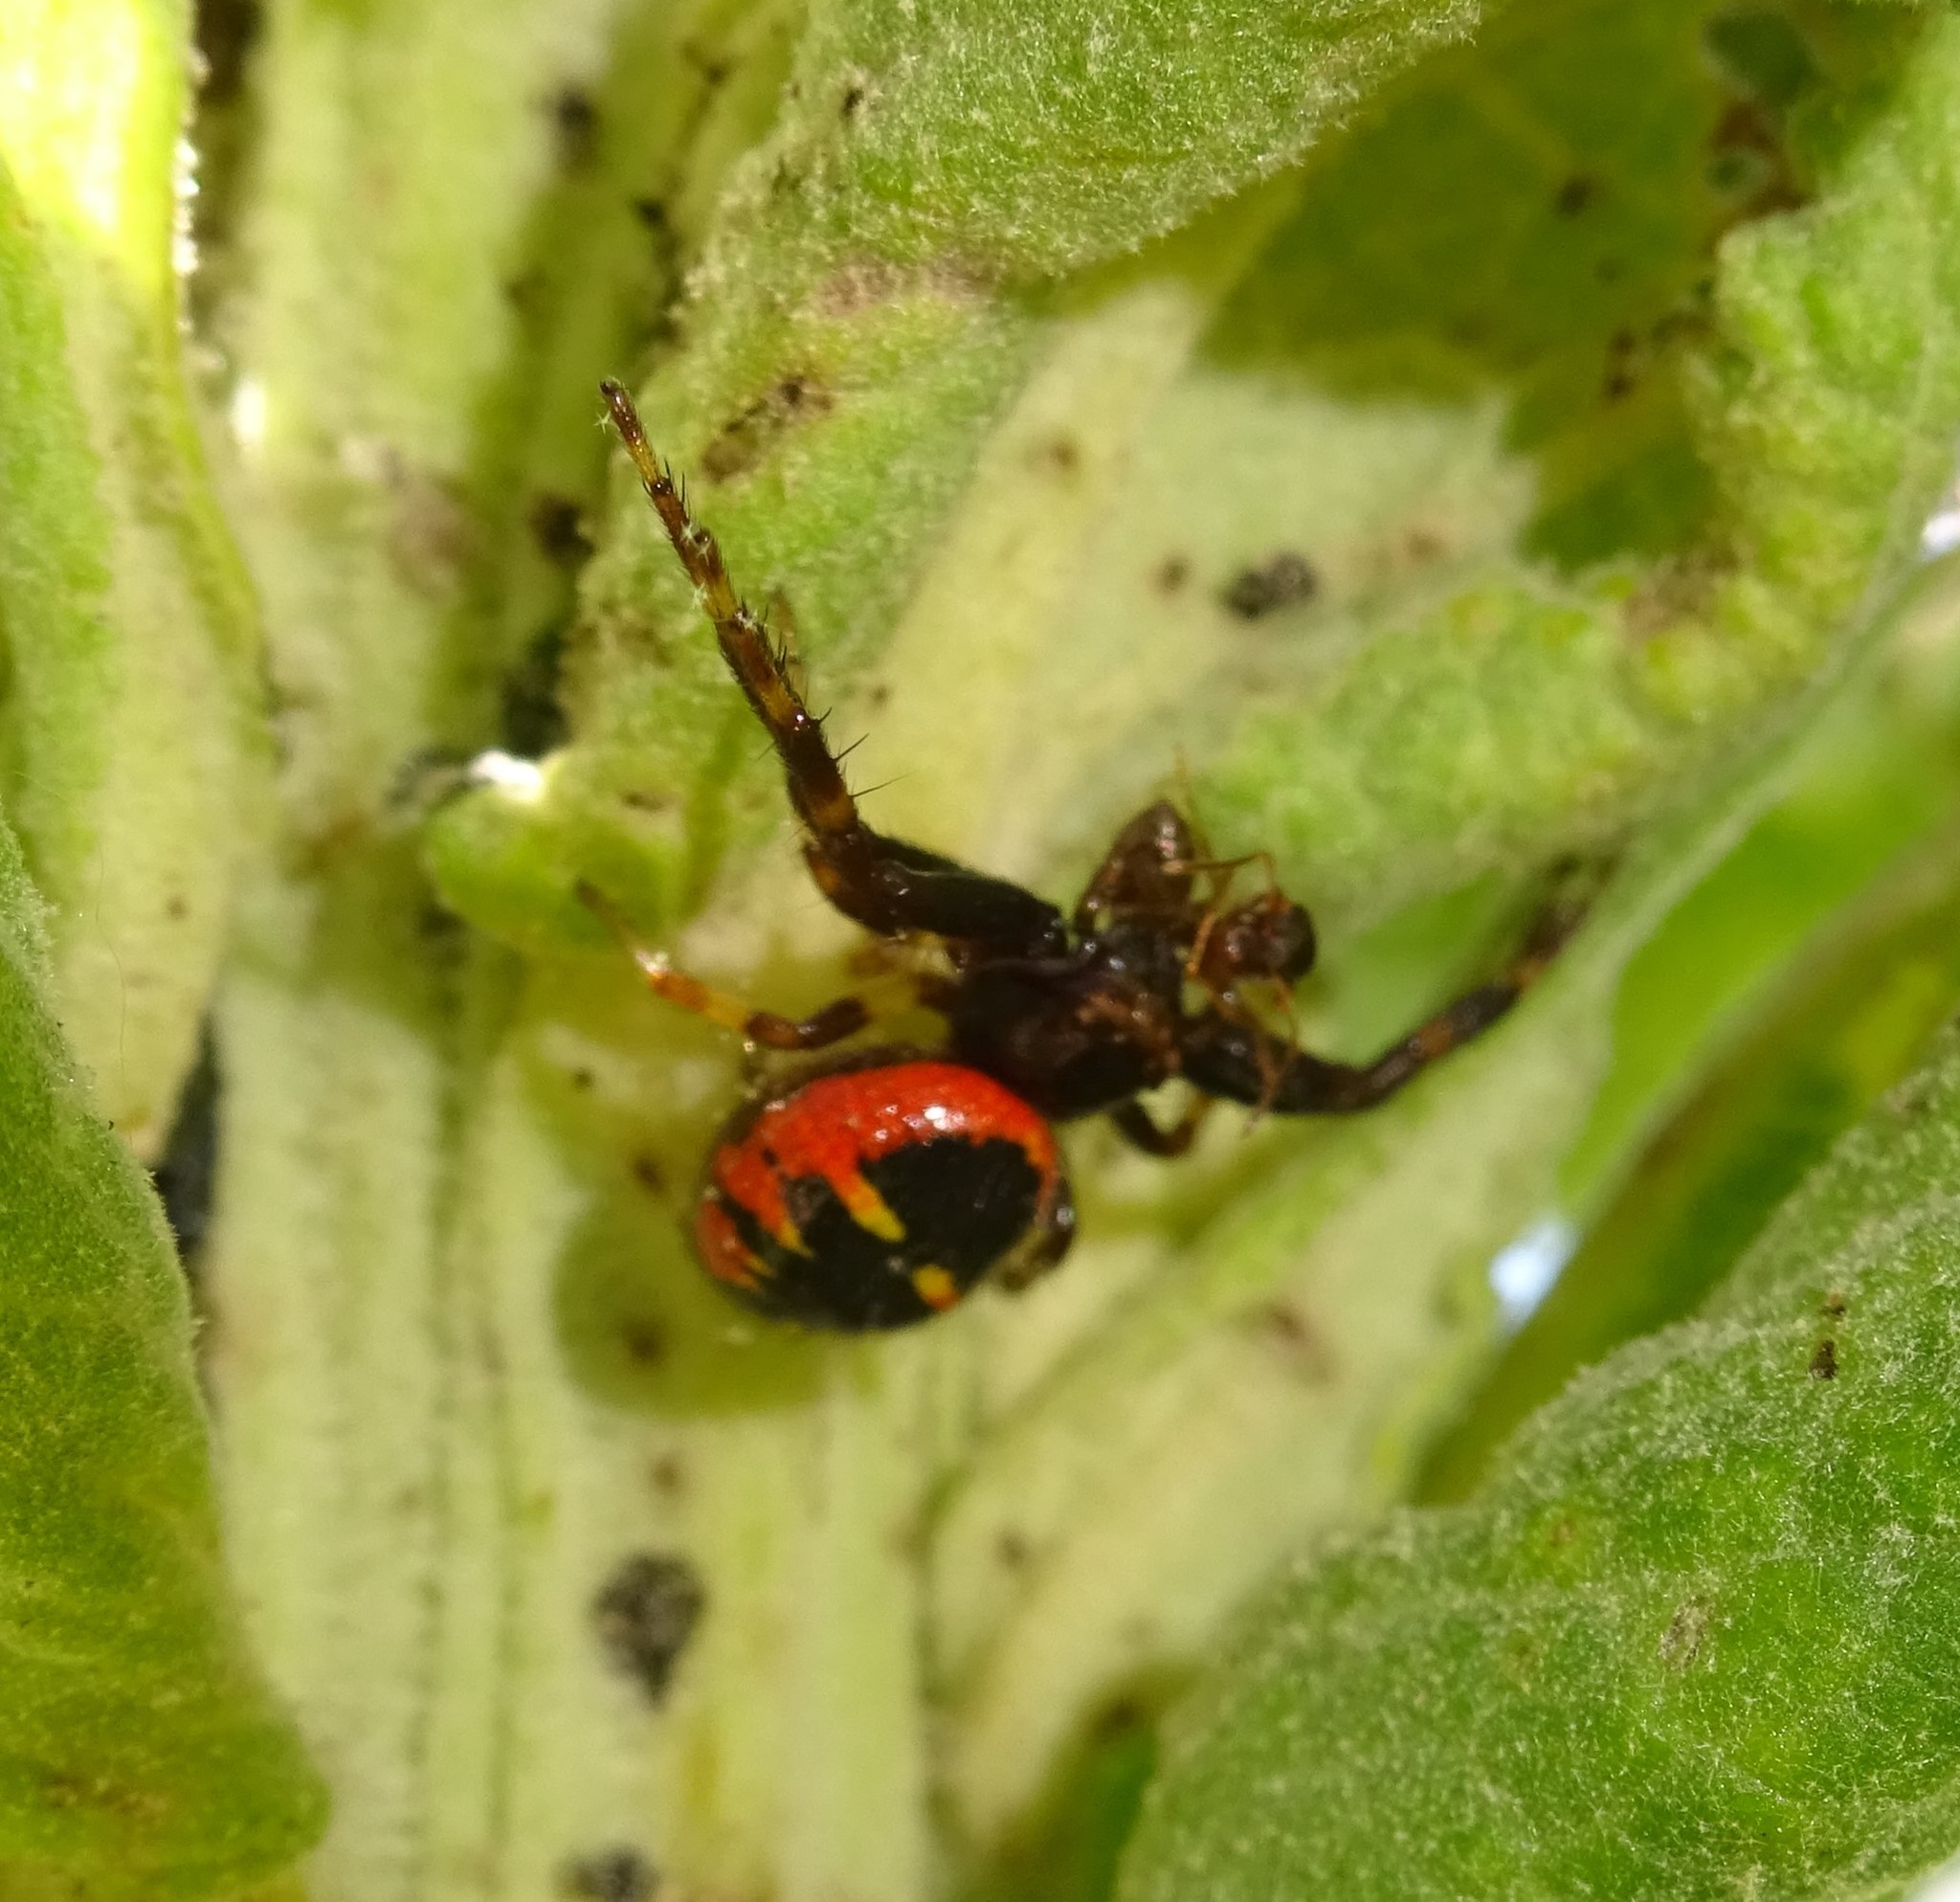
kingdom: Animalia
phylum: Arthropoda
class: Arachnida
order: Araneae
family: Thomisidae
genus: Synema
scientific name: Synema globosum
